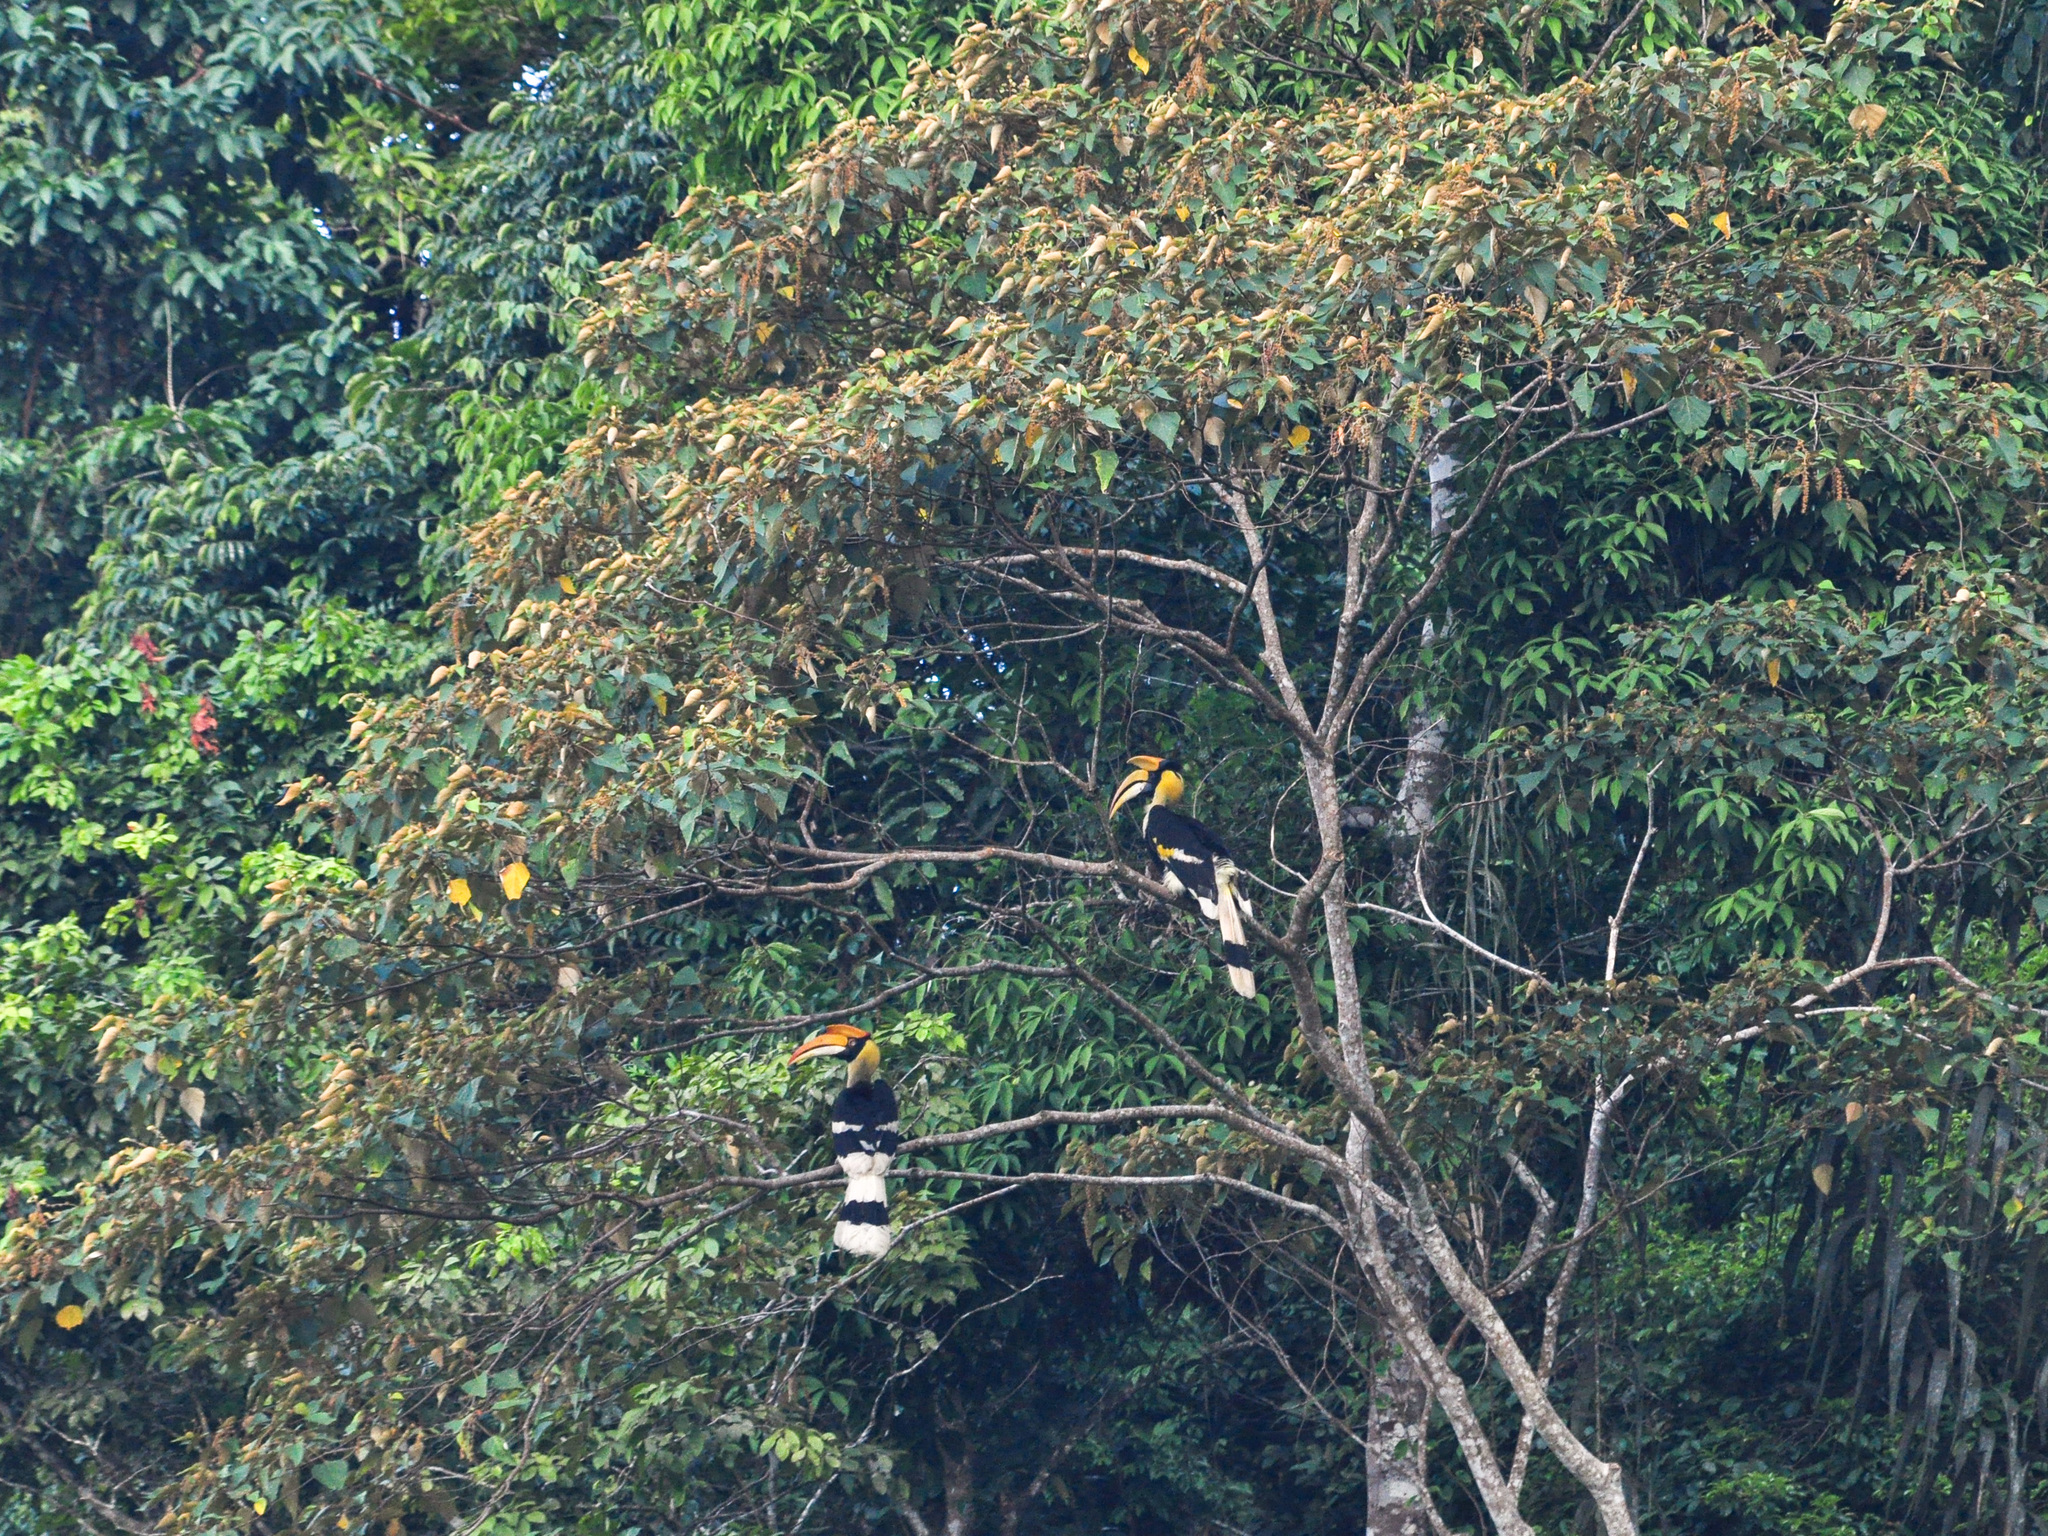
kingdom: Animalia
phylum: Chordata
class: Aves
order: Bucerotiformes
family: Bucerotidae
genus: Buceros
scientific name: Buceros bicornis
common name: Great hornbill
